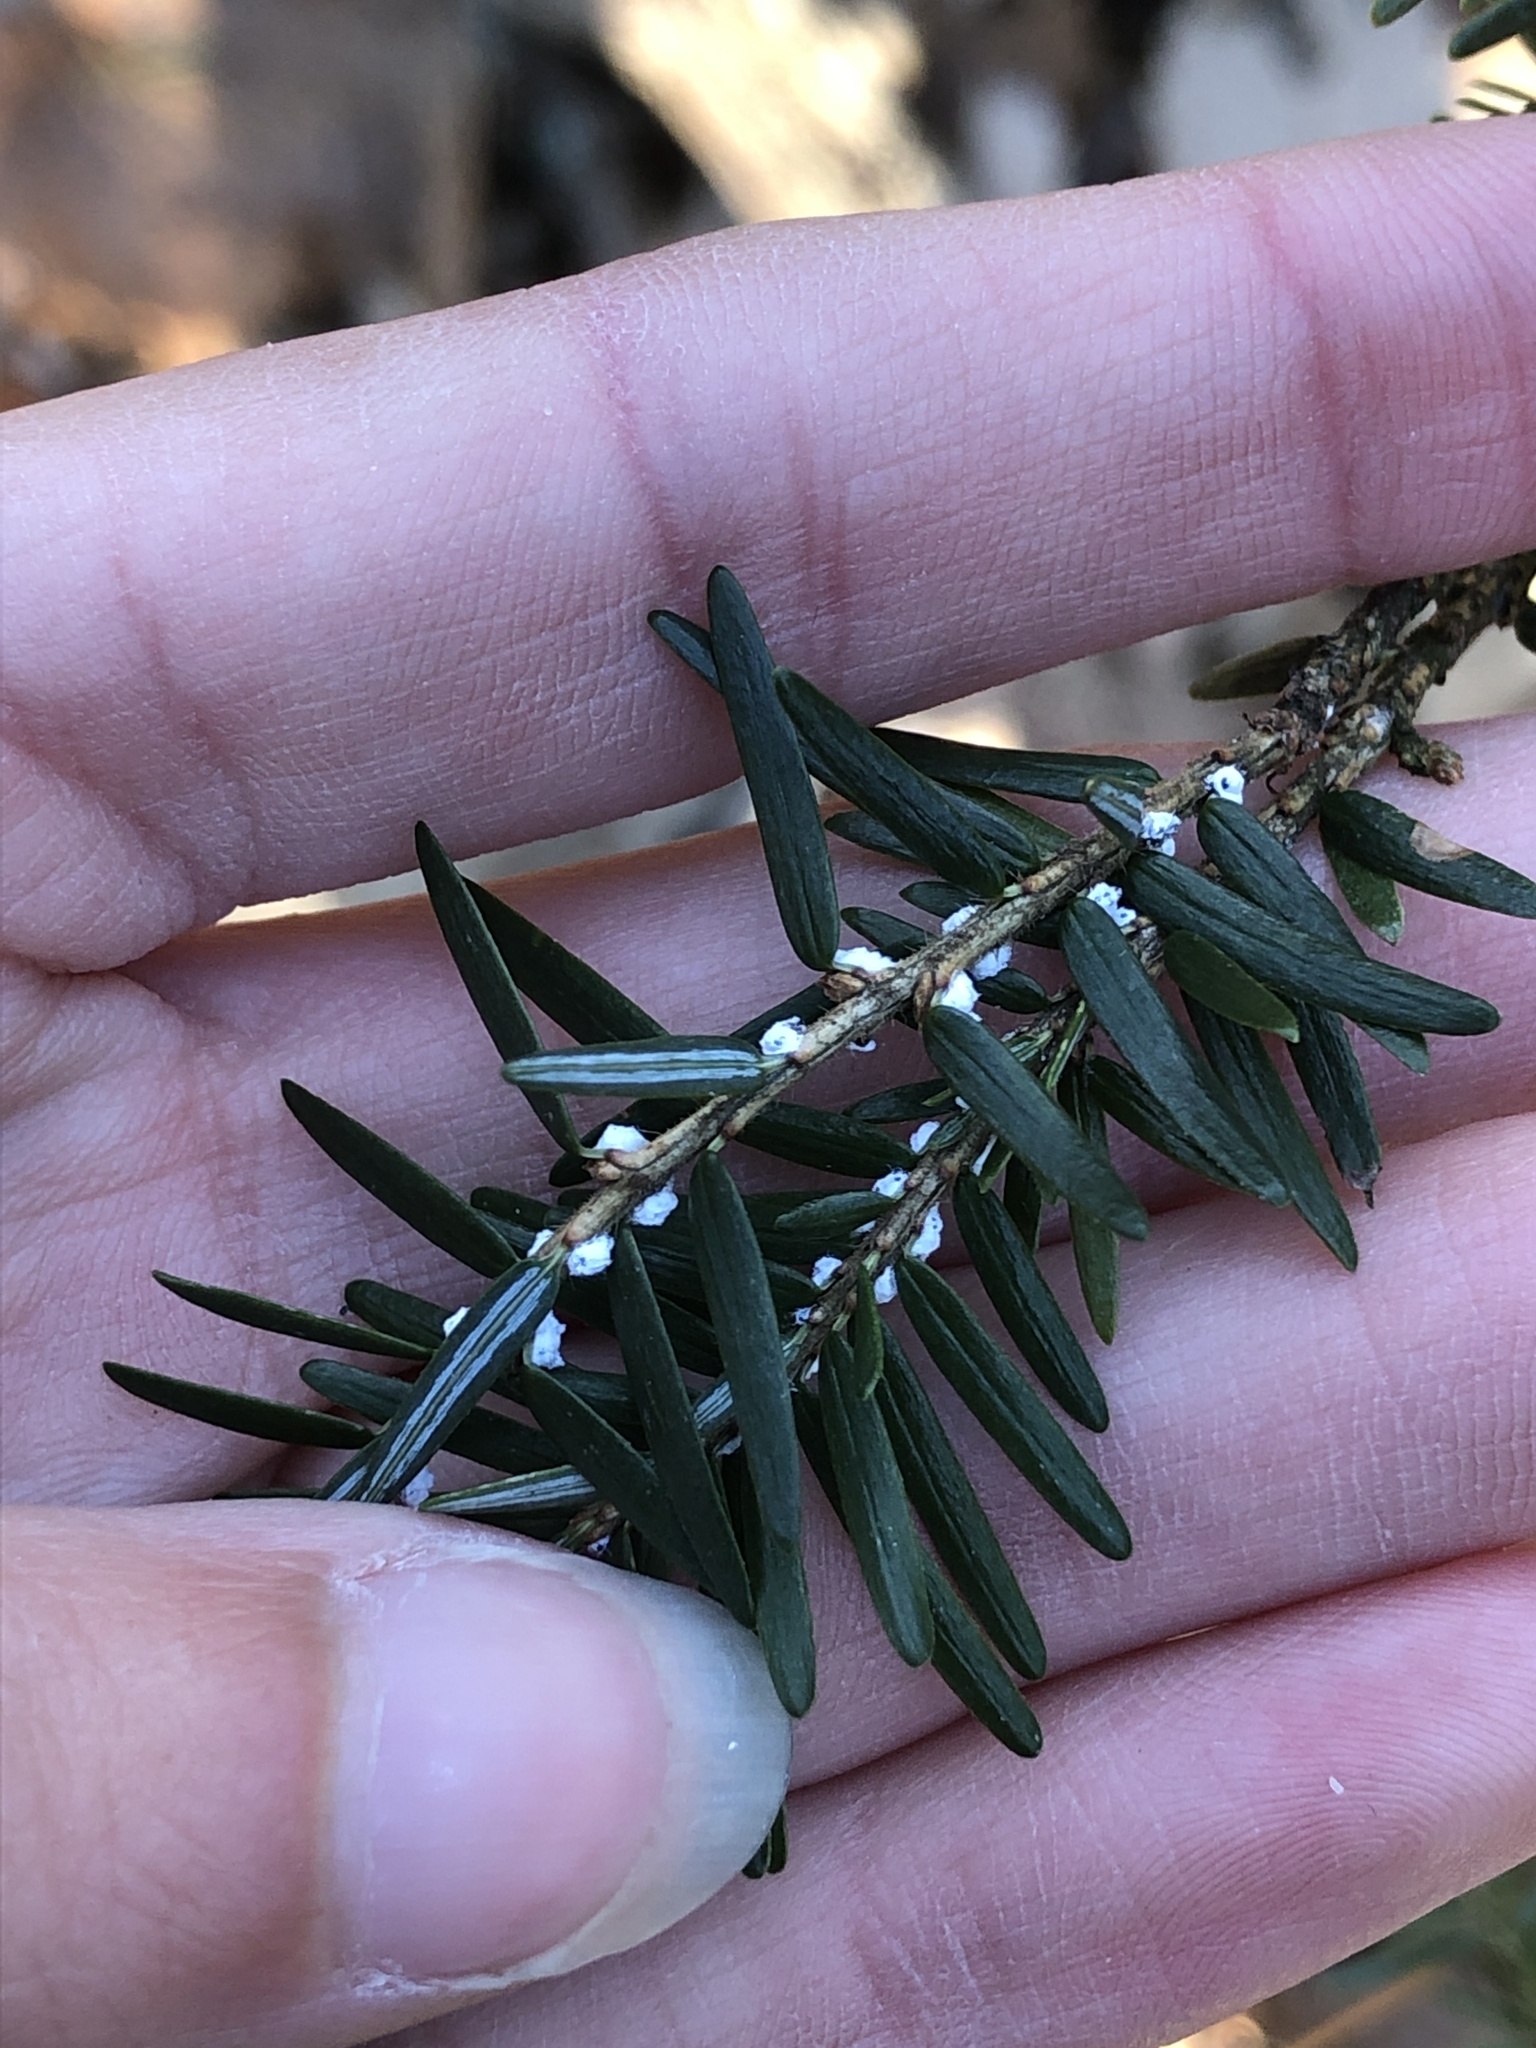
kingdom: Animalia
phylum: Arthropoda
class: Insecta
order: Hemiptera
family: Adelgidae
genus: Adelges
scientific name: Adelges tsugae
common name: Hemlock woolly adelgid
